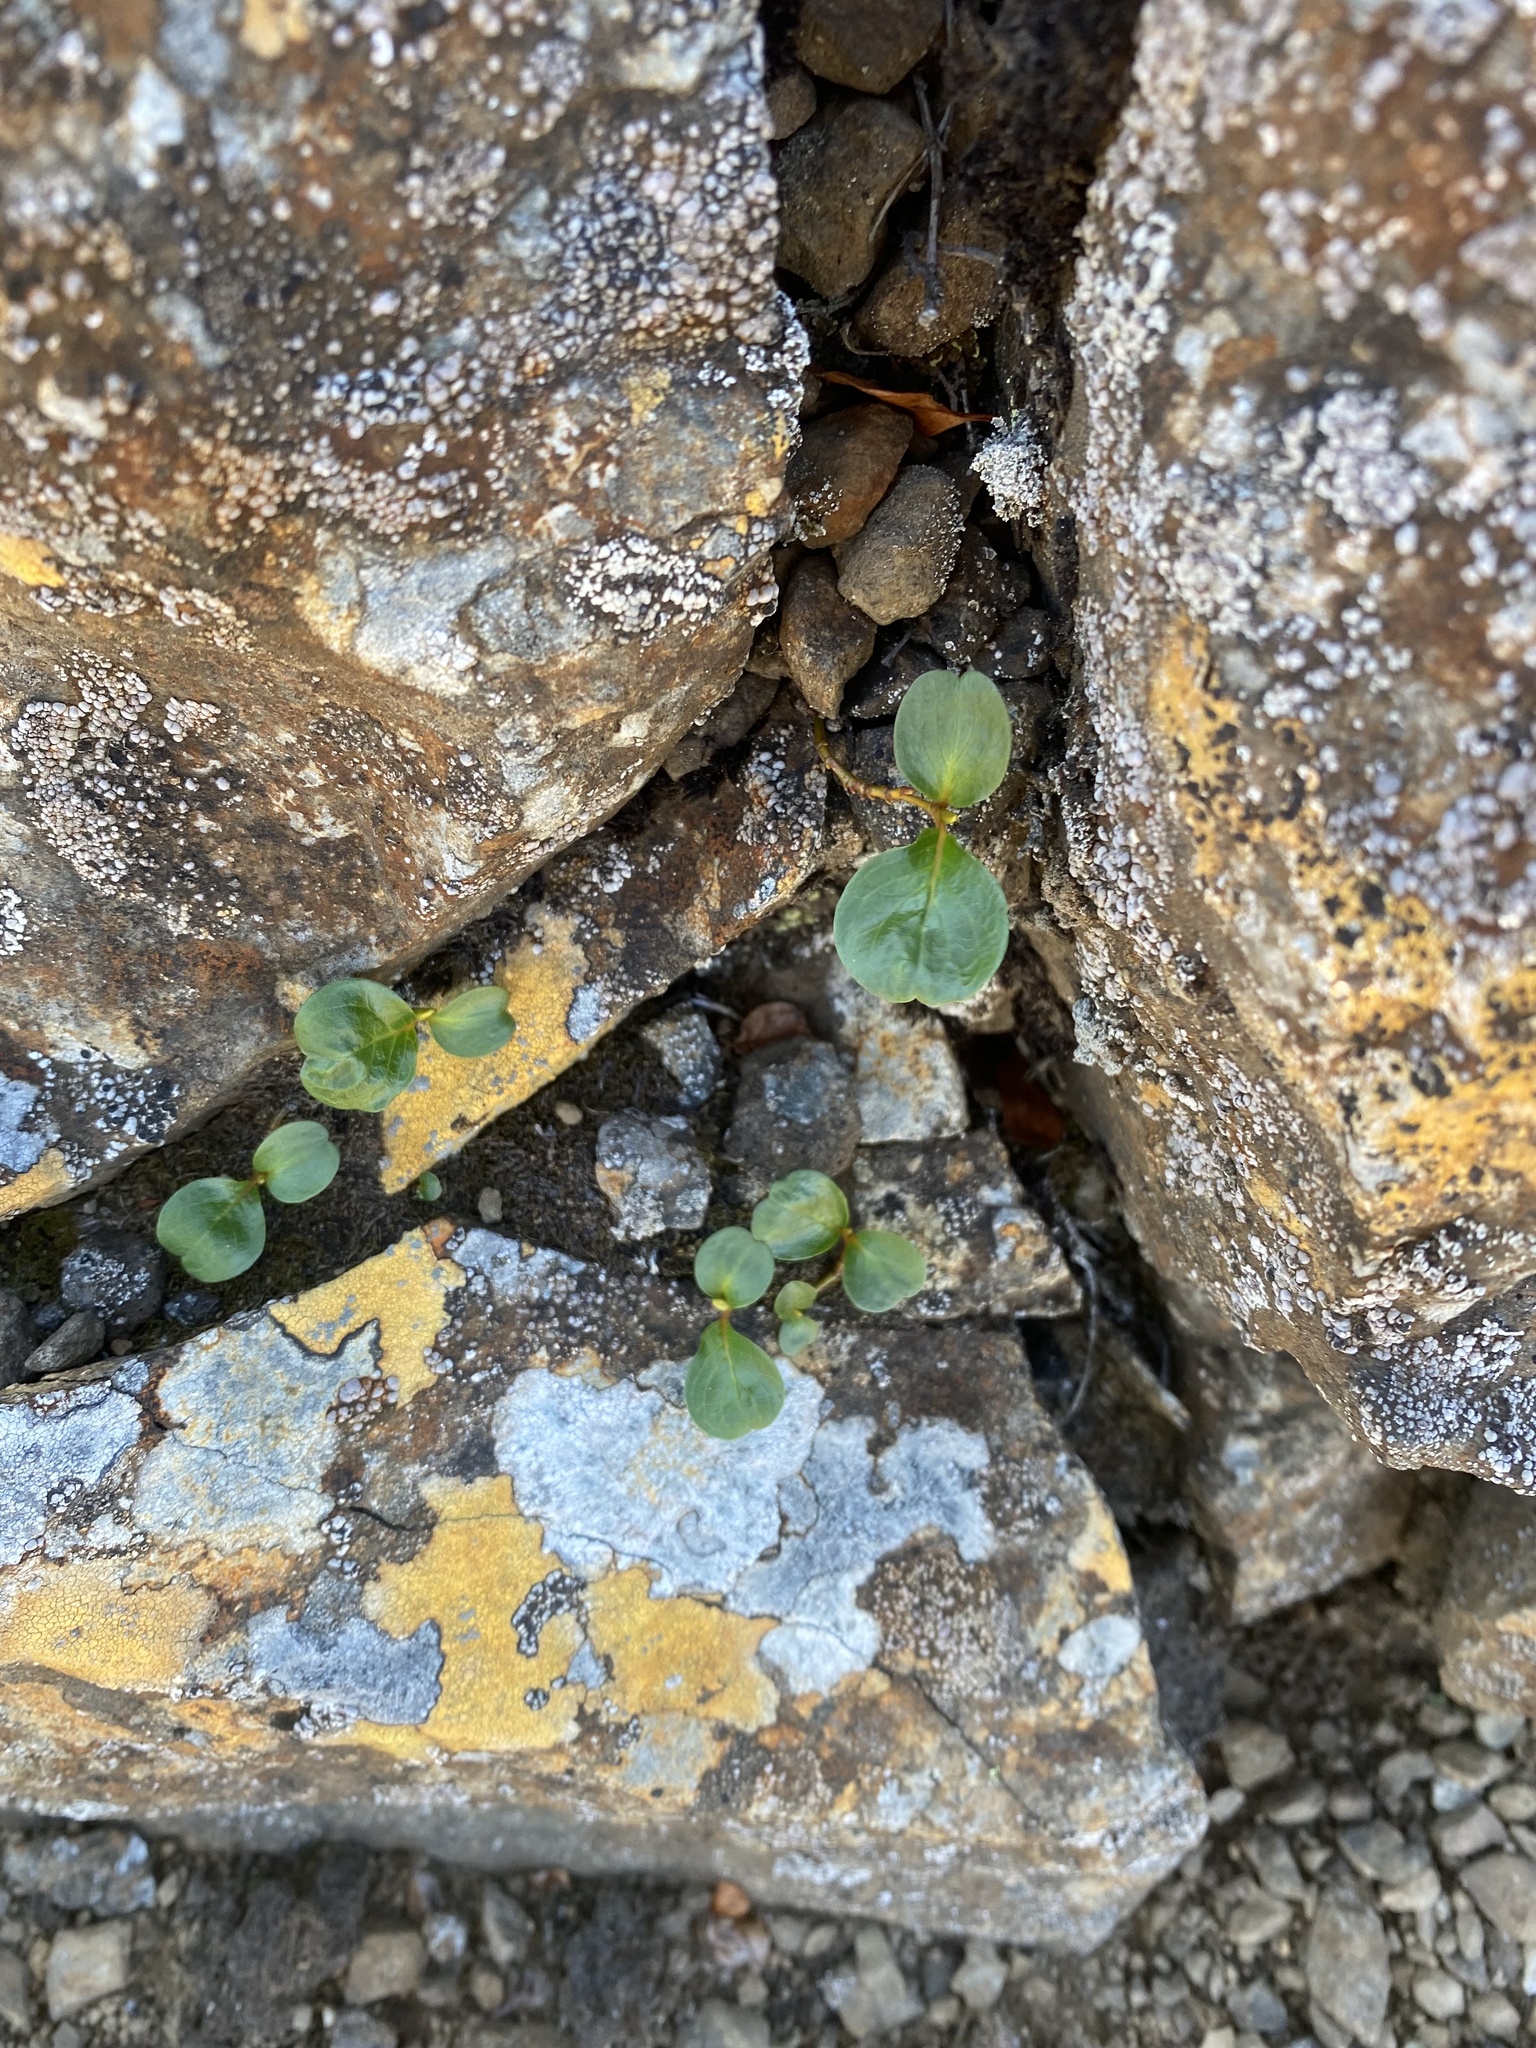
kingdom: Plantae
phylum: Tracheophyta
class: Magnoliopsida
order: Malpighiales
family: Salicaceae
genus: Salix
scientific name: Salix polaris
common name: Polar willow
